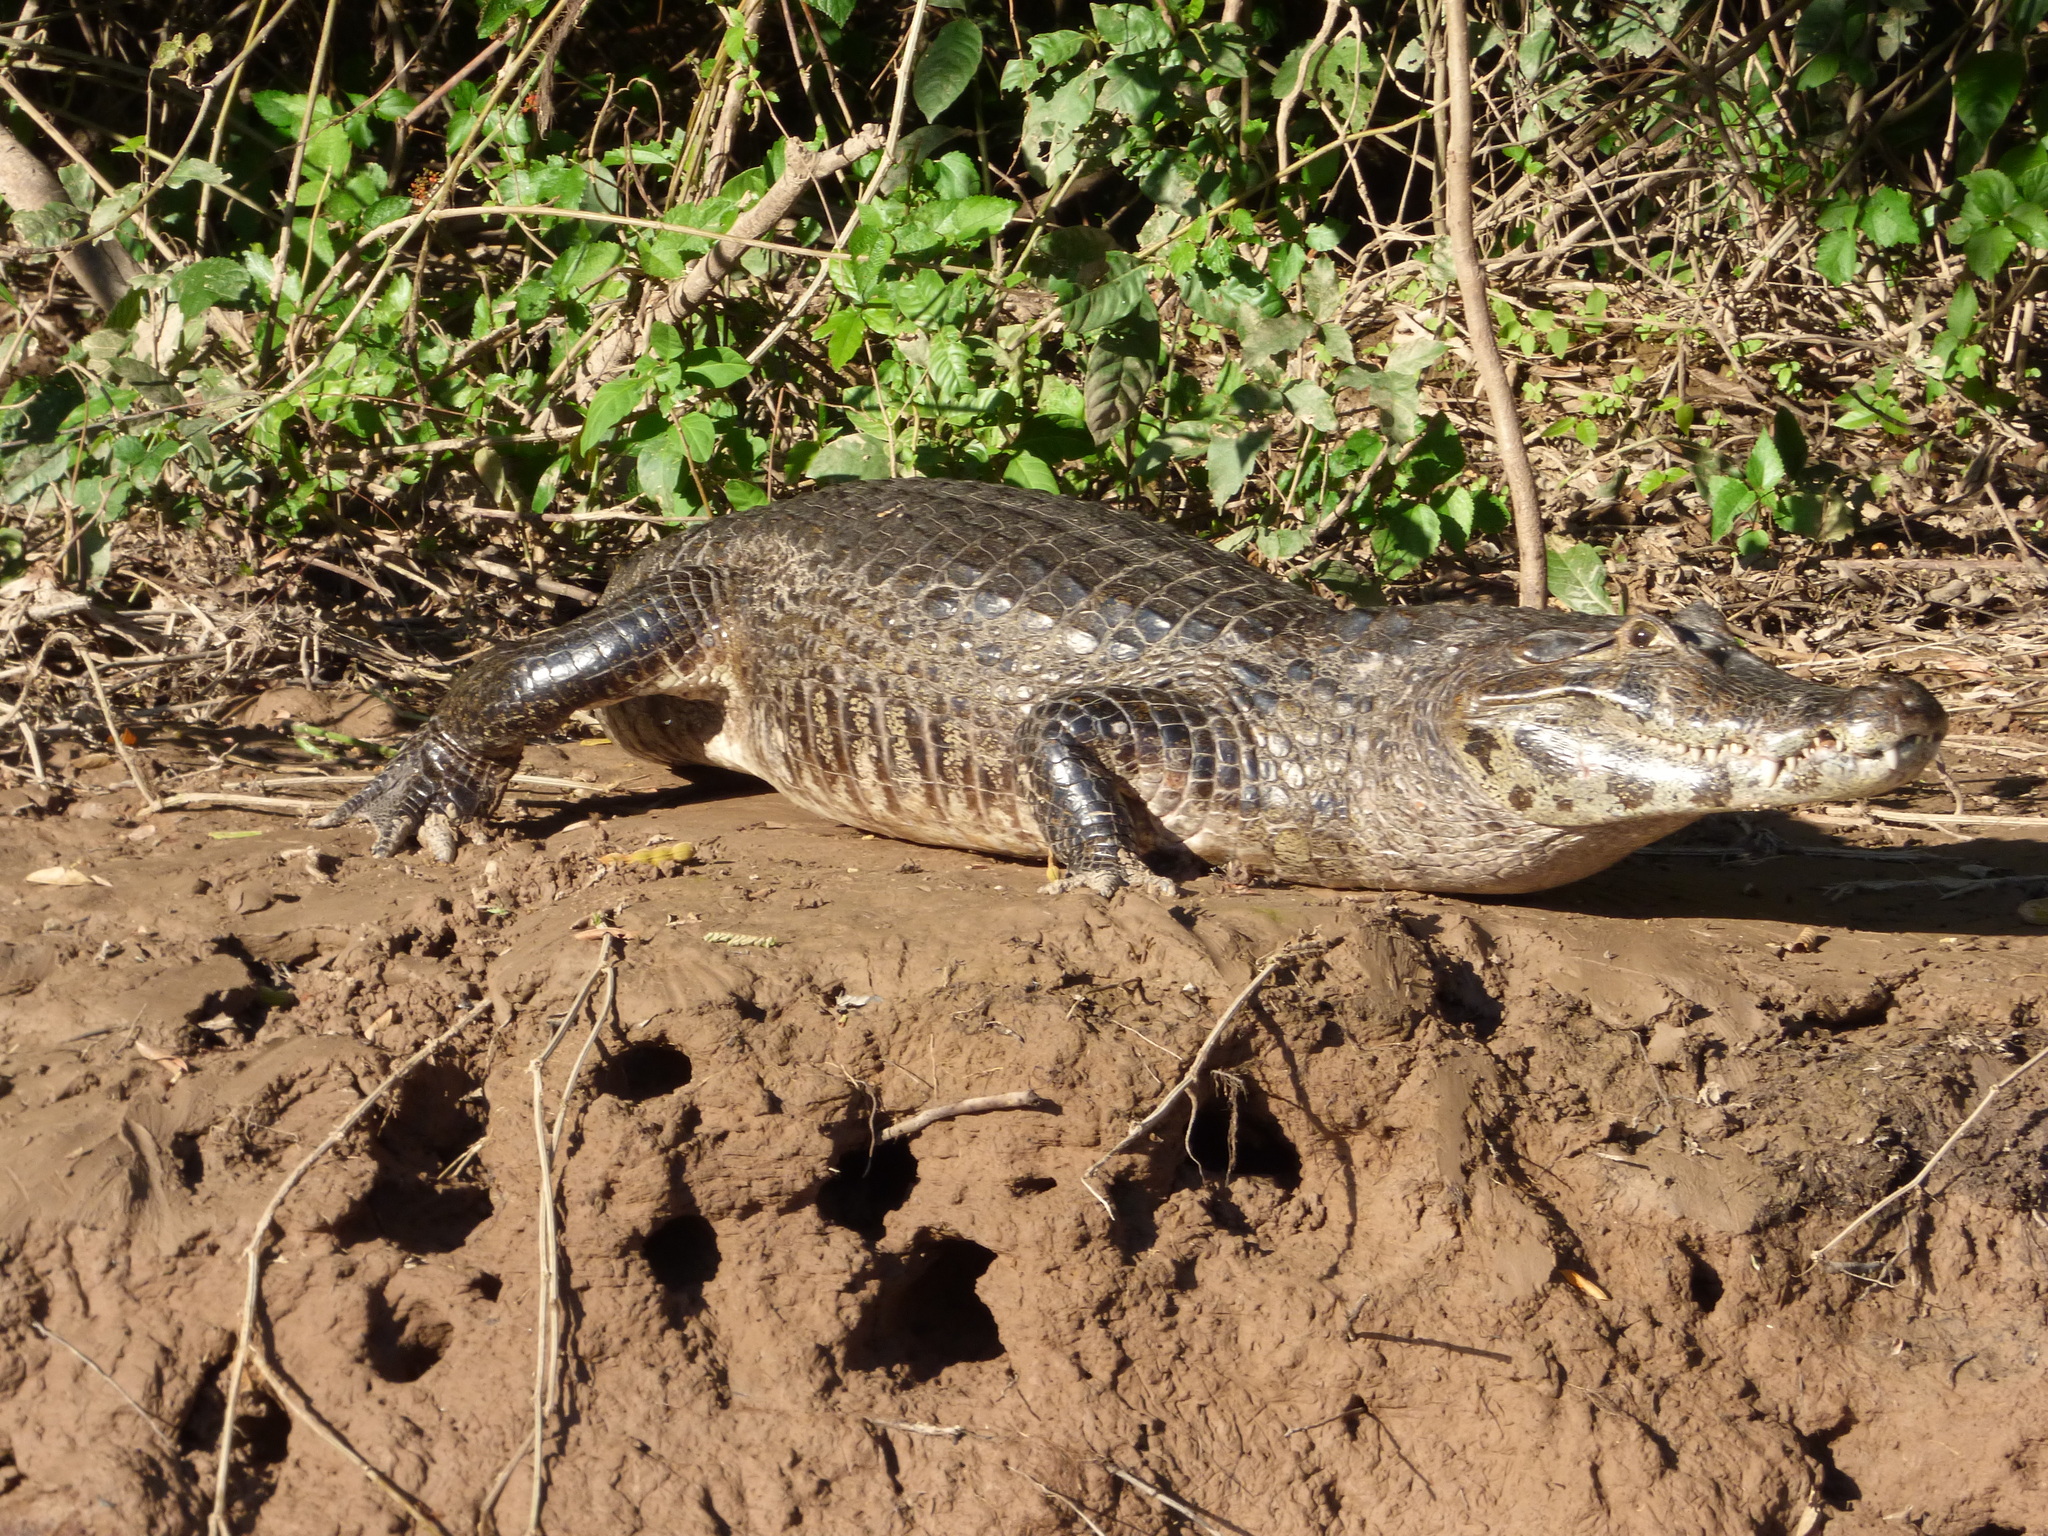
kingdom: Animalia
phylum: Chordata
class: Crocodylia
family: Alligatoridae
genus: Caiman
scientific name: Caiman yacare
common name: Yacare caiman
